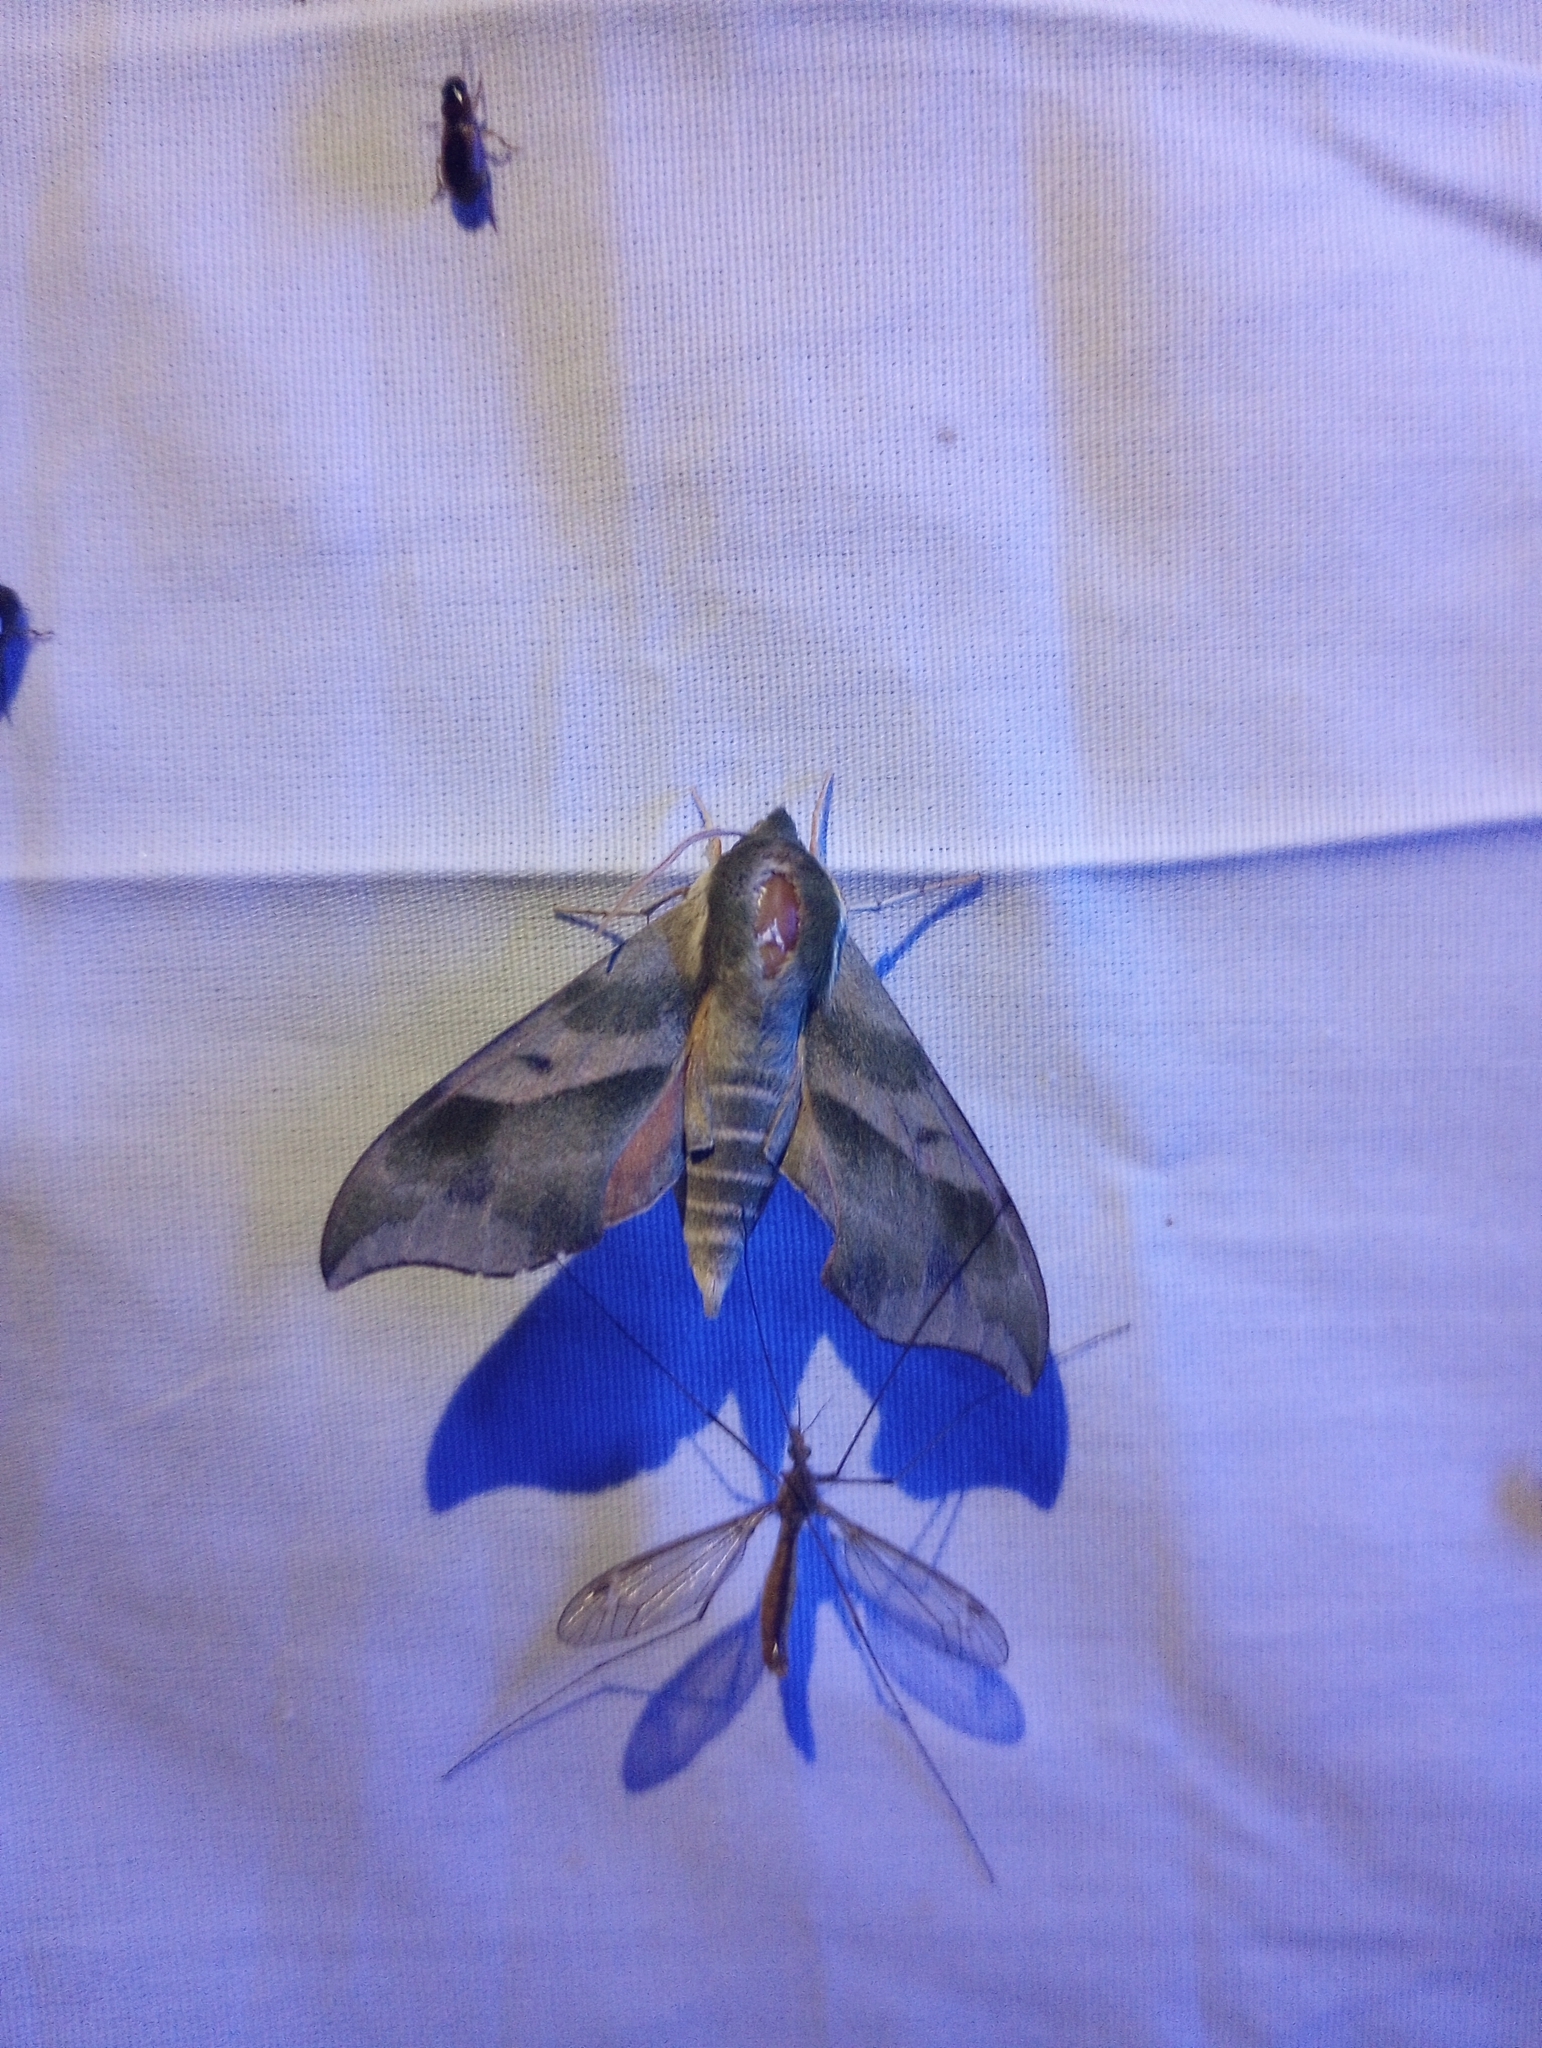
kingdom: Animalia
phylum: Arthropoda
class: Insecta
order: Lepidoptera
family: Sphingidae
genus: Darapsa
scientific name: Darapsa myron
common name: Hog sphinx
